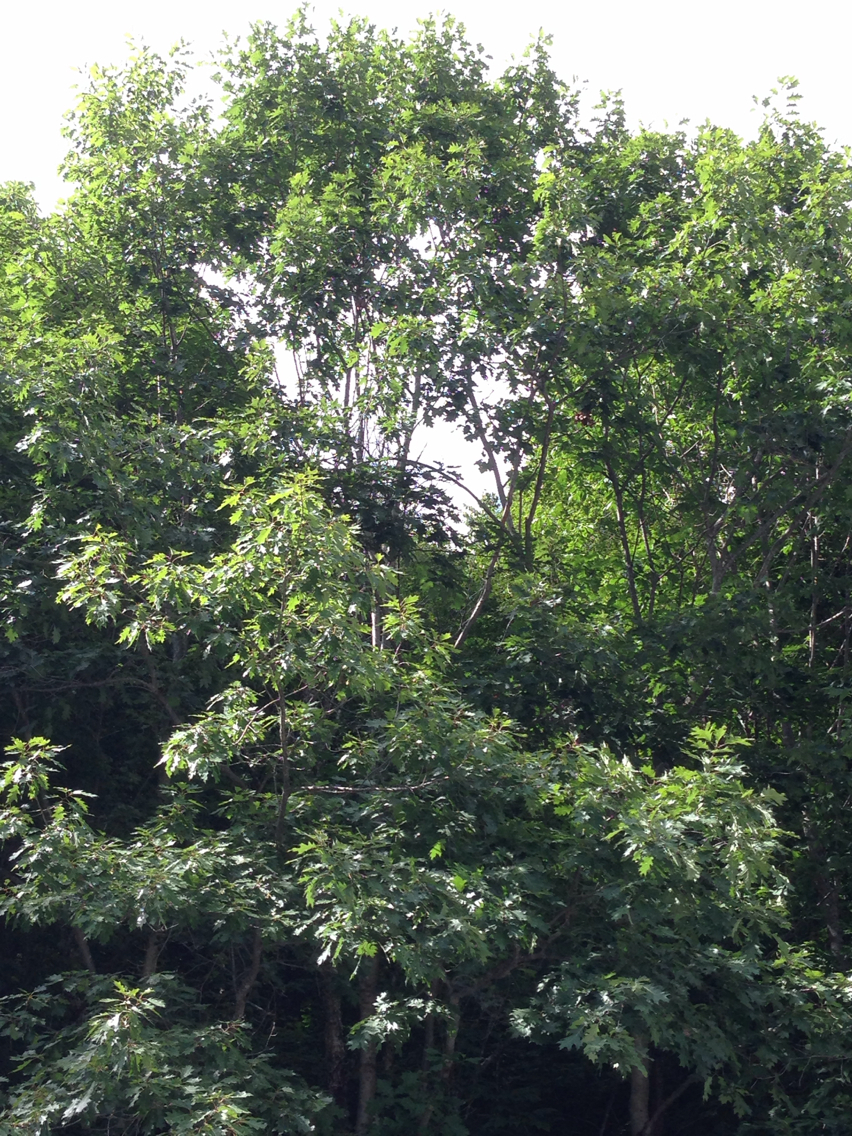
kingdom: Plantae
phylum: Tracheophyta
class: Magnoliopsida
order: Fagales
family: Fagaceae
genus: Quercus
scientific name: Quercus rubra
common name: Red oak
